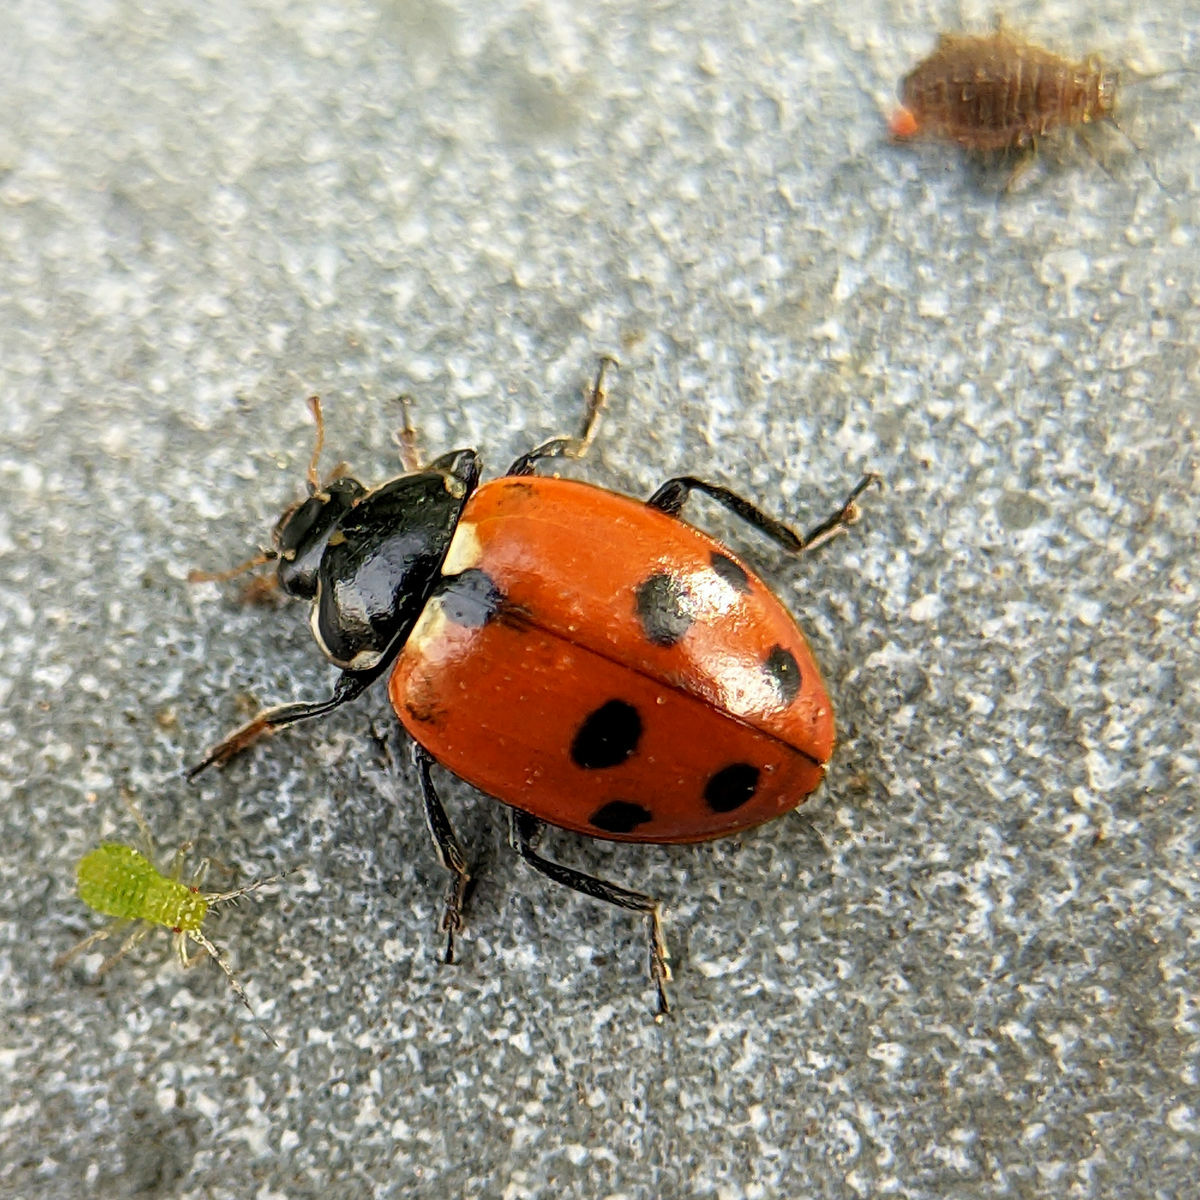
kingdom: Animalia
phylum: Arthropoda
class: Insecta
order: Coleoptera
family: Coccinellidae
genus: Hippodamia
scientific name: Hippodamia variegata
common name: Ladybird beetle
